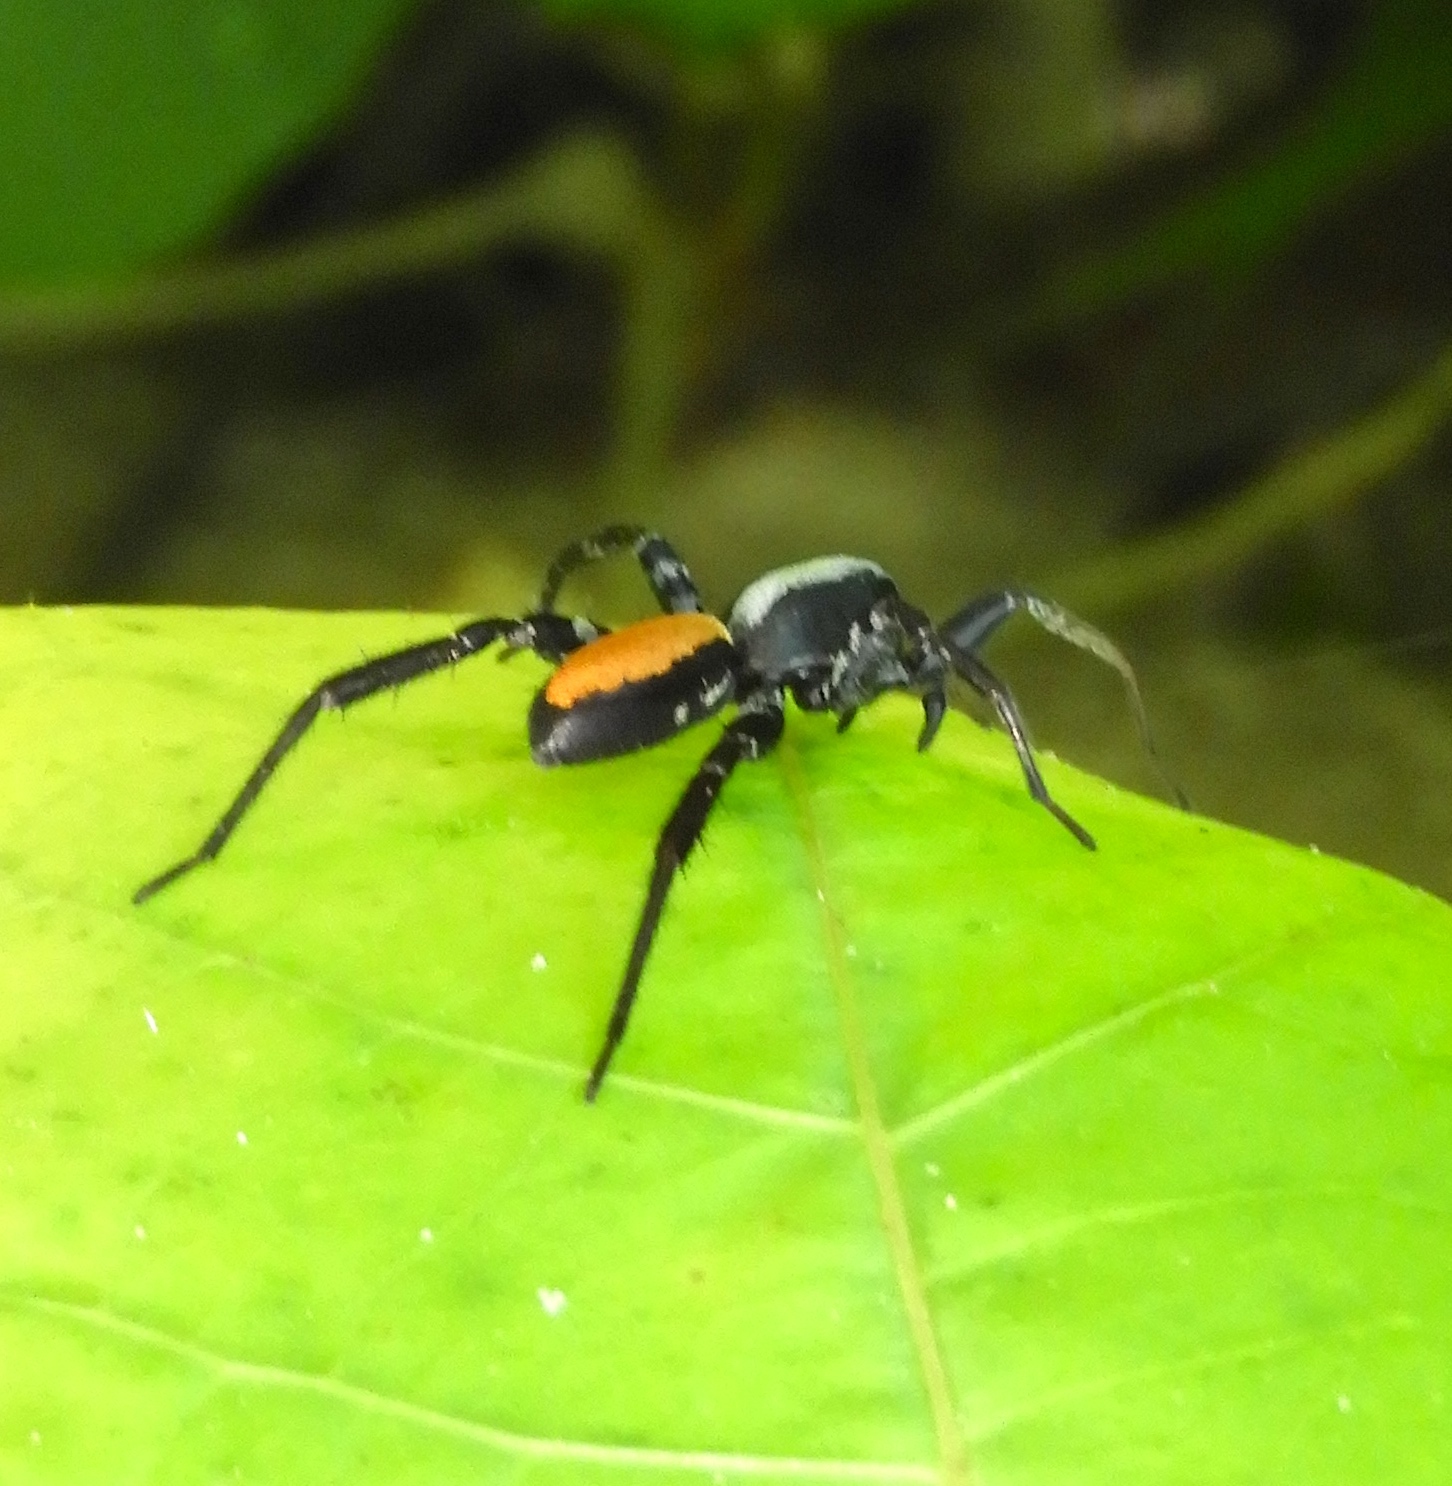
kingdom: Animalia
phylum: Arthropoda
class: Arachnida
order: Araneae
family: Corinnidae
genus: Castianeira
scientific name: Castianeira dorsata
